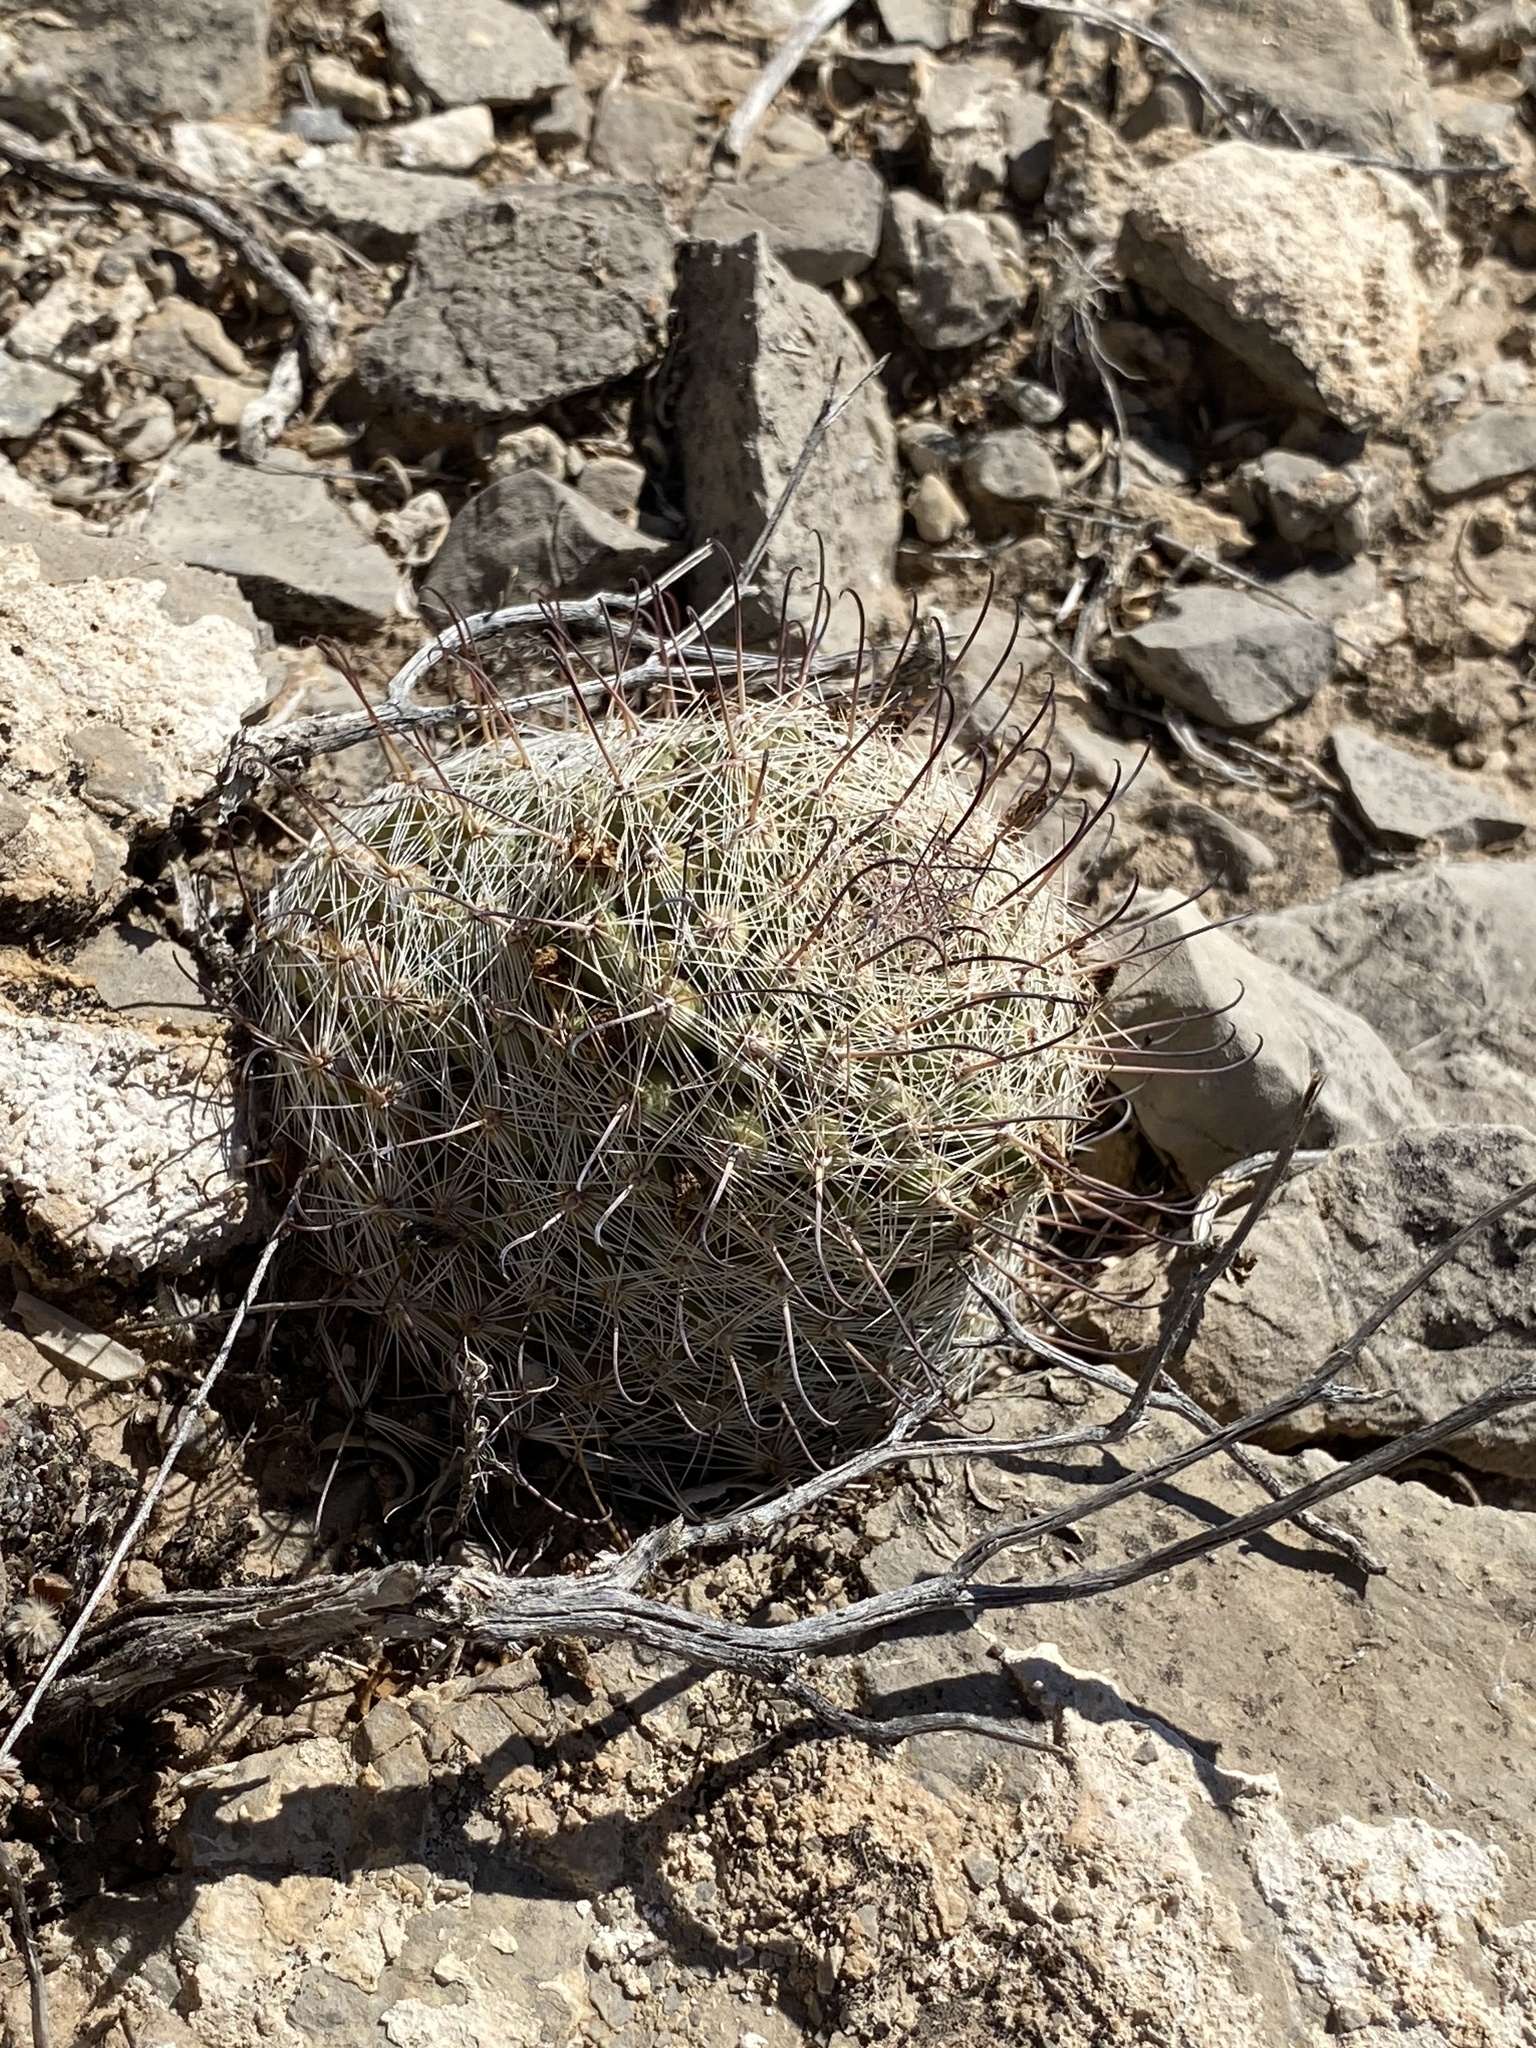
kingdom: Plantae
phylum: Tracheophyta
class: Magnoliopsida
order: Caryophyllales
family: Cactaceae
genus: Cochemiea
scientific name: Cochemiea grahamii
